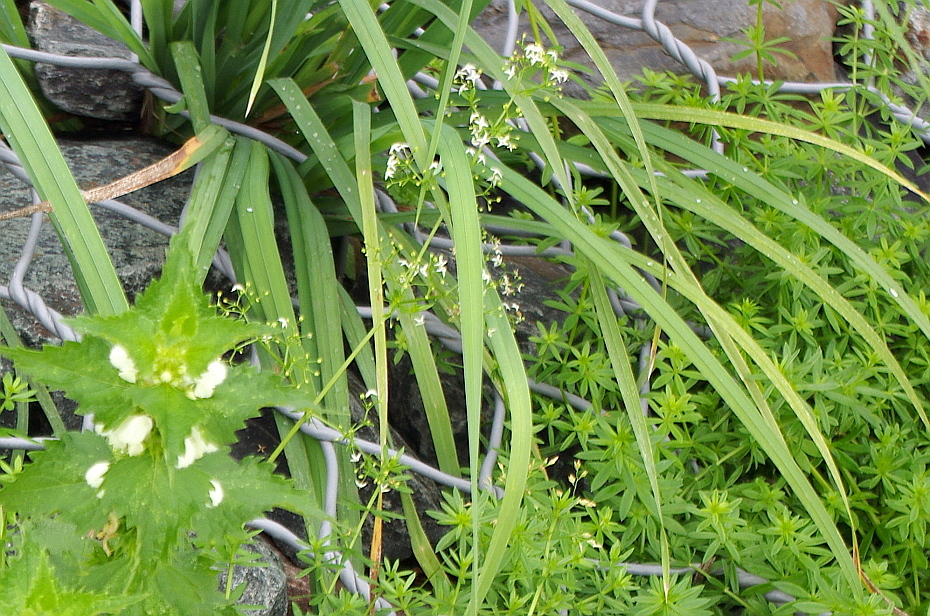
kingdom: Plantae
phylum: Tracheophyta
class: Magnoliopsida
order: Gentianales
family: Rubiaceae
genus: Galium
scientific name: Galium mollugo
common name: Hedge bedstraw
